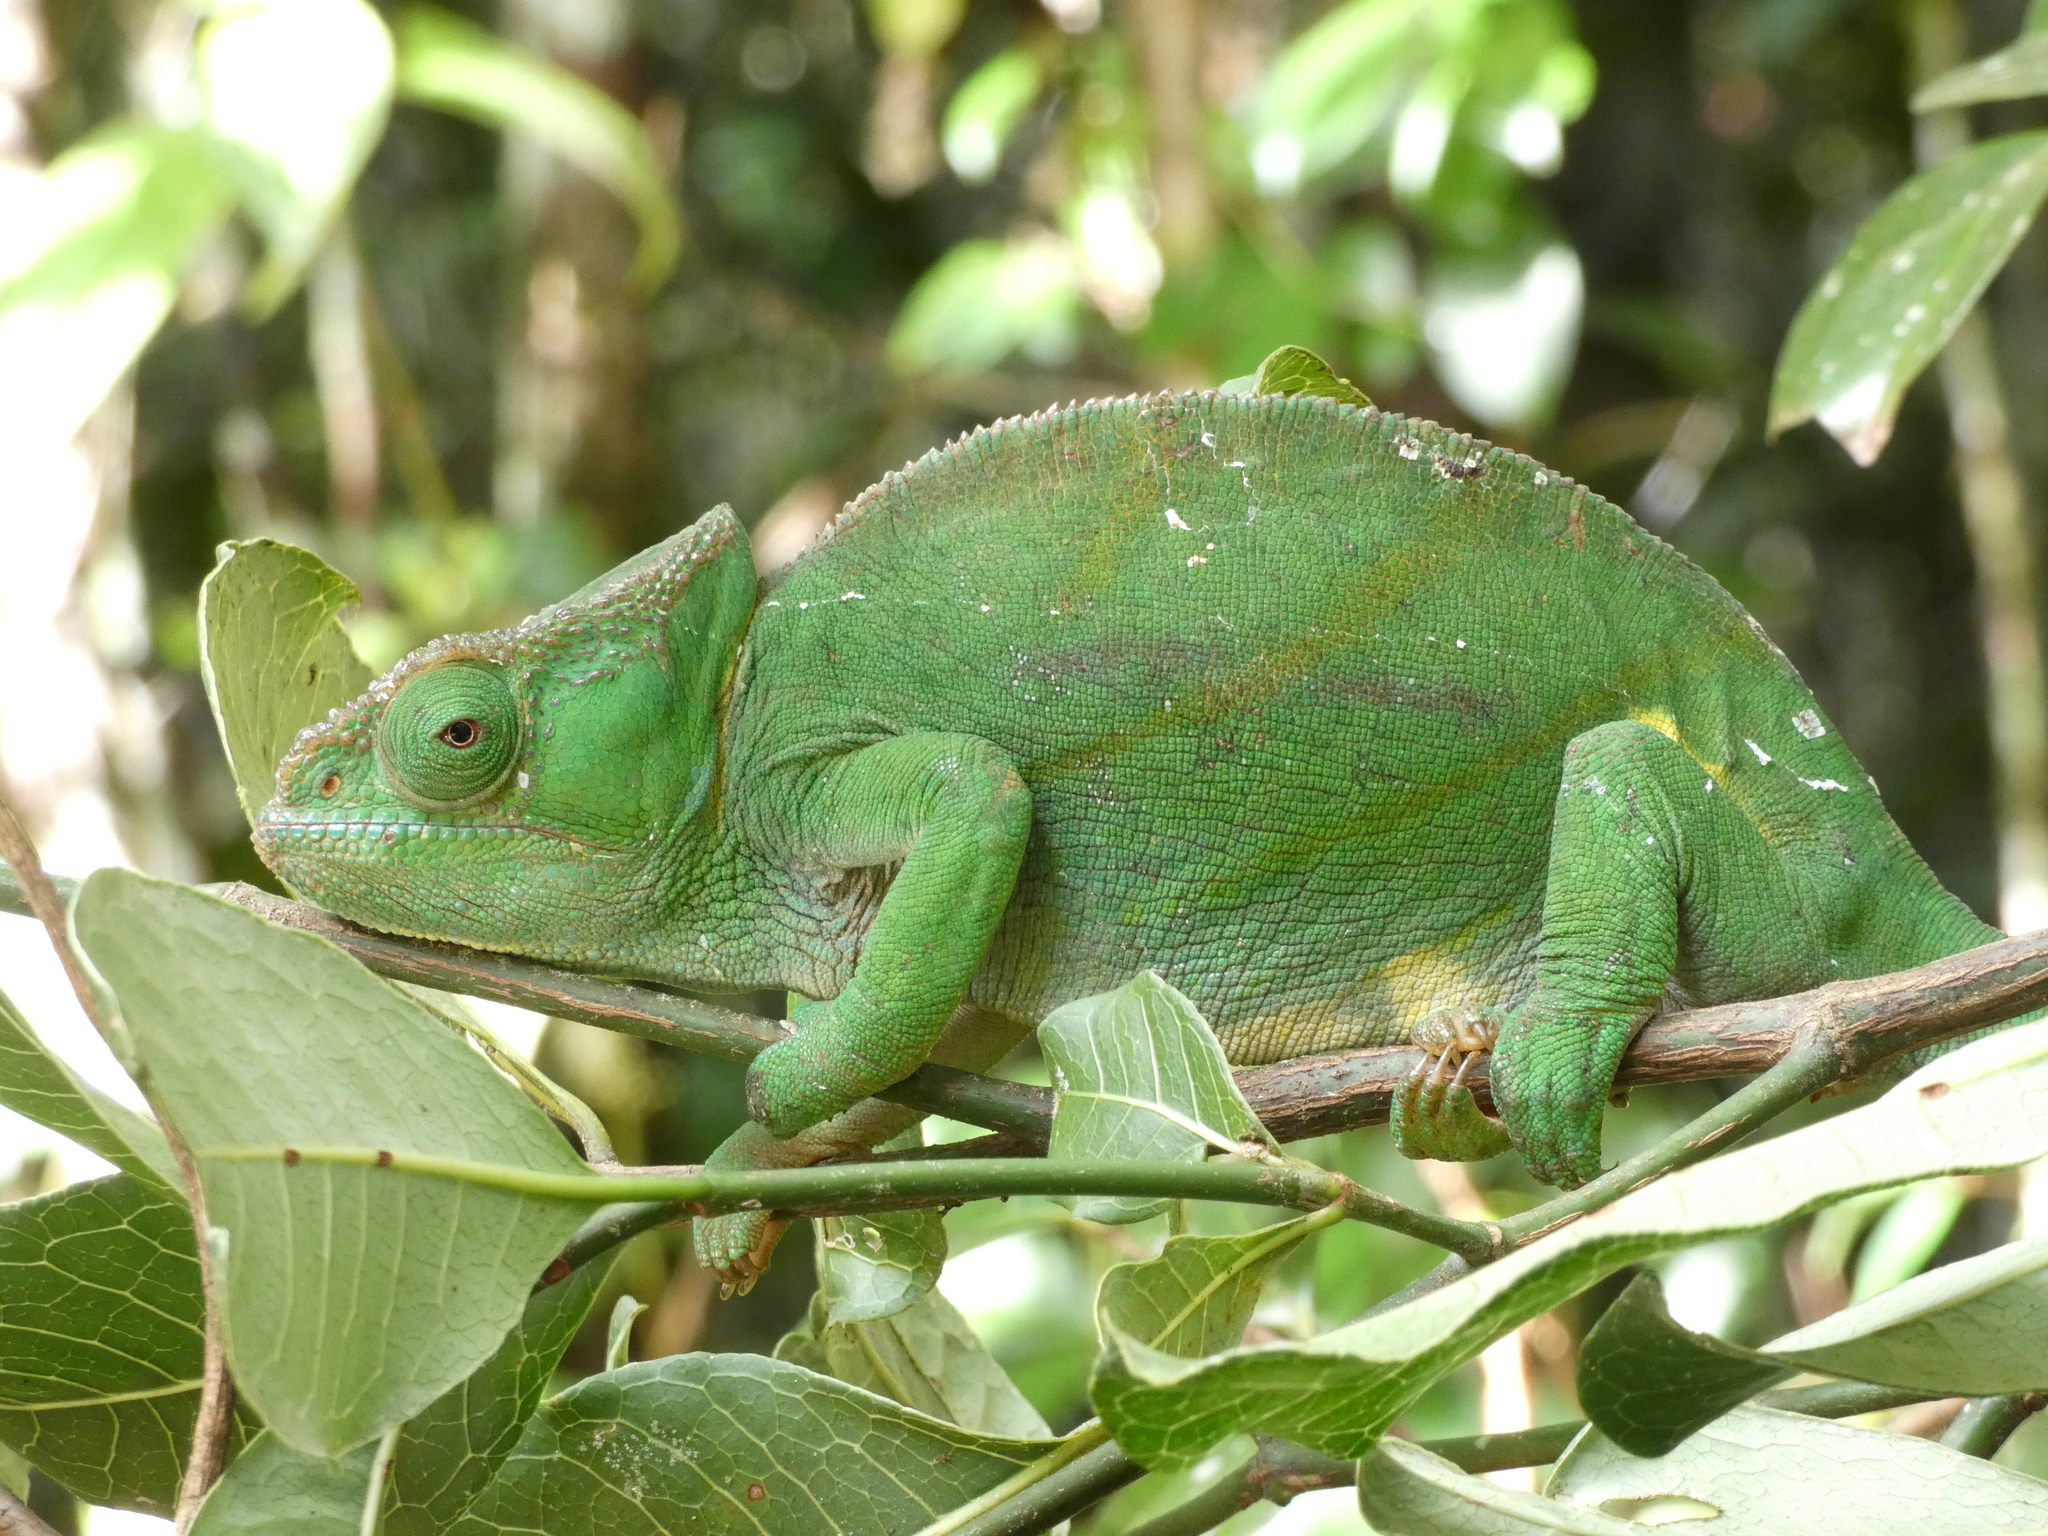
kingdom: Animalia
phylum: Chordata
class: Squamata
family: Chamaeleonidae
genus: Calumma
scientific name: Calumma parsonii
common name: Parson's chameleon
